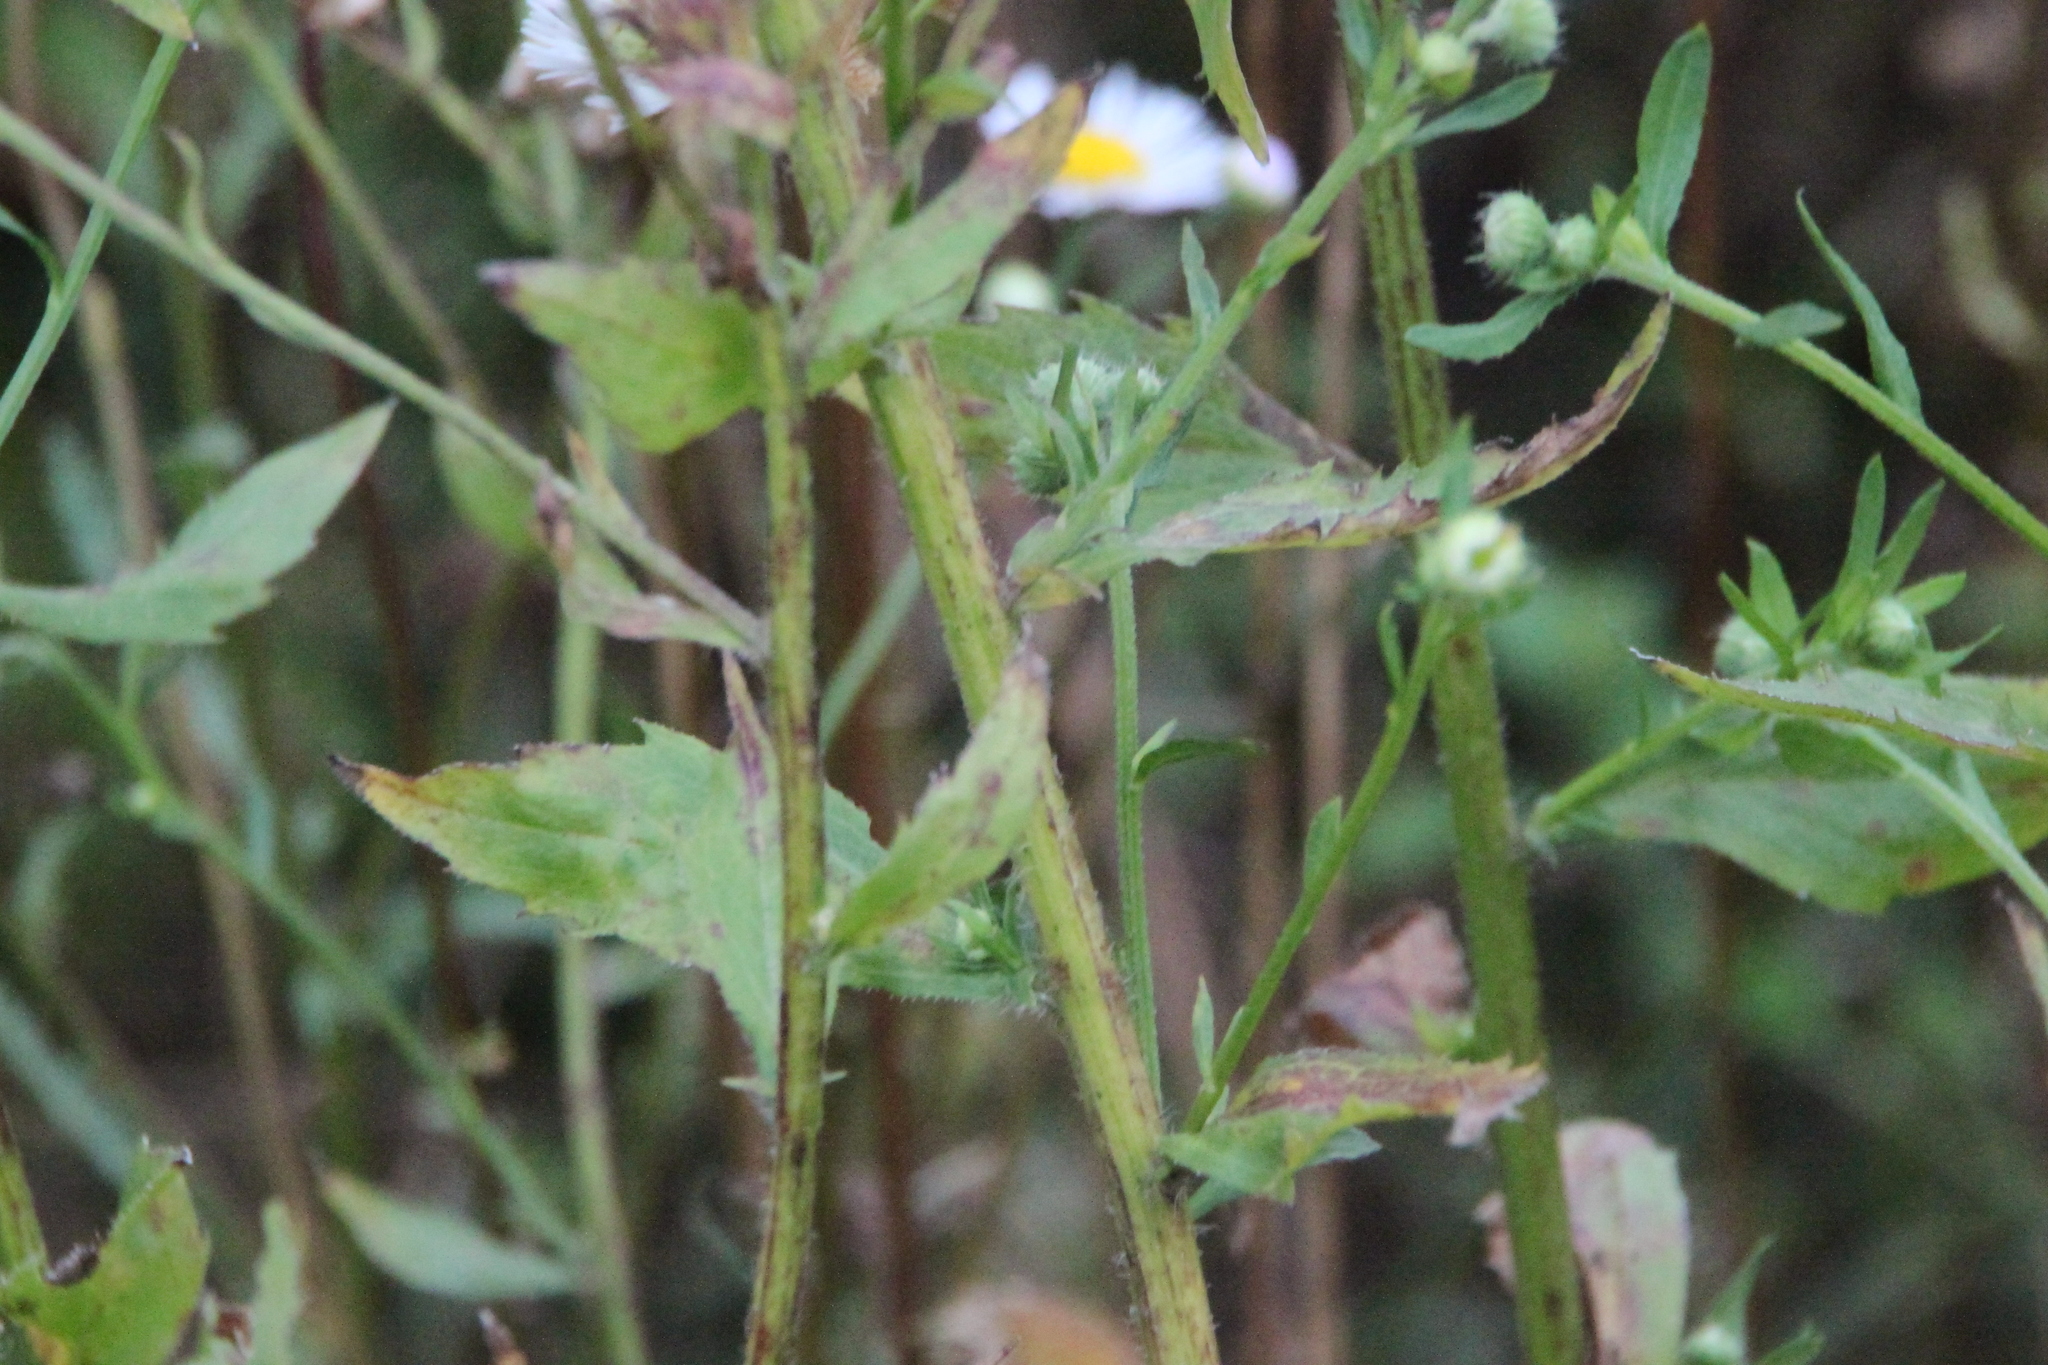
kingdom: Plantae
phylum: Tracheophyta
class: Magnoliopsida
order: Asterales
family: Asteraceae
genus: Erigeron
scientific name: Erigeron annuus
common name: Tall fleabane
